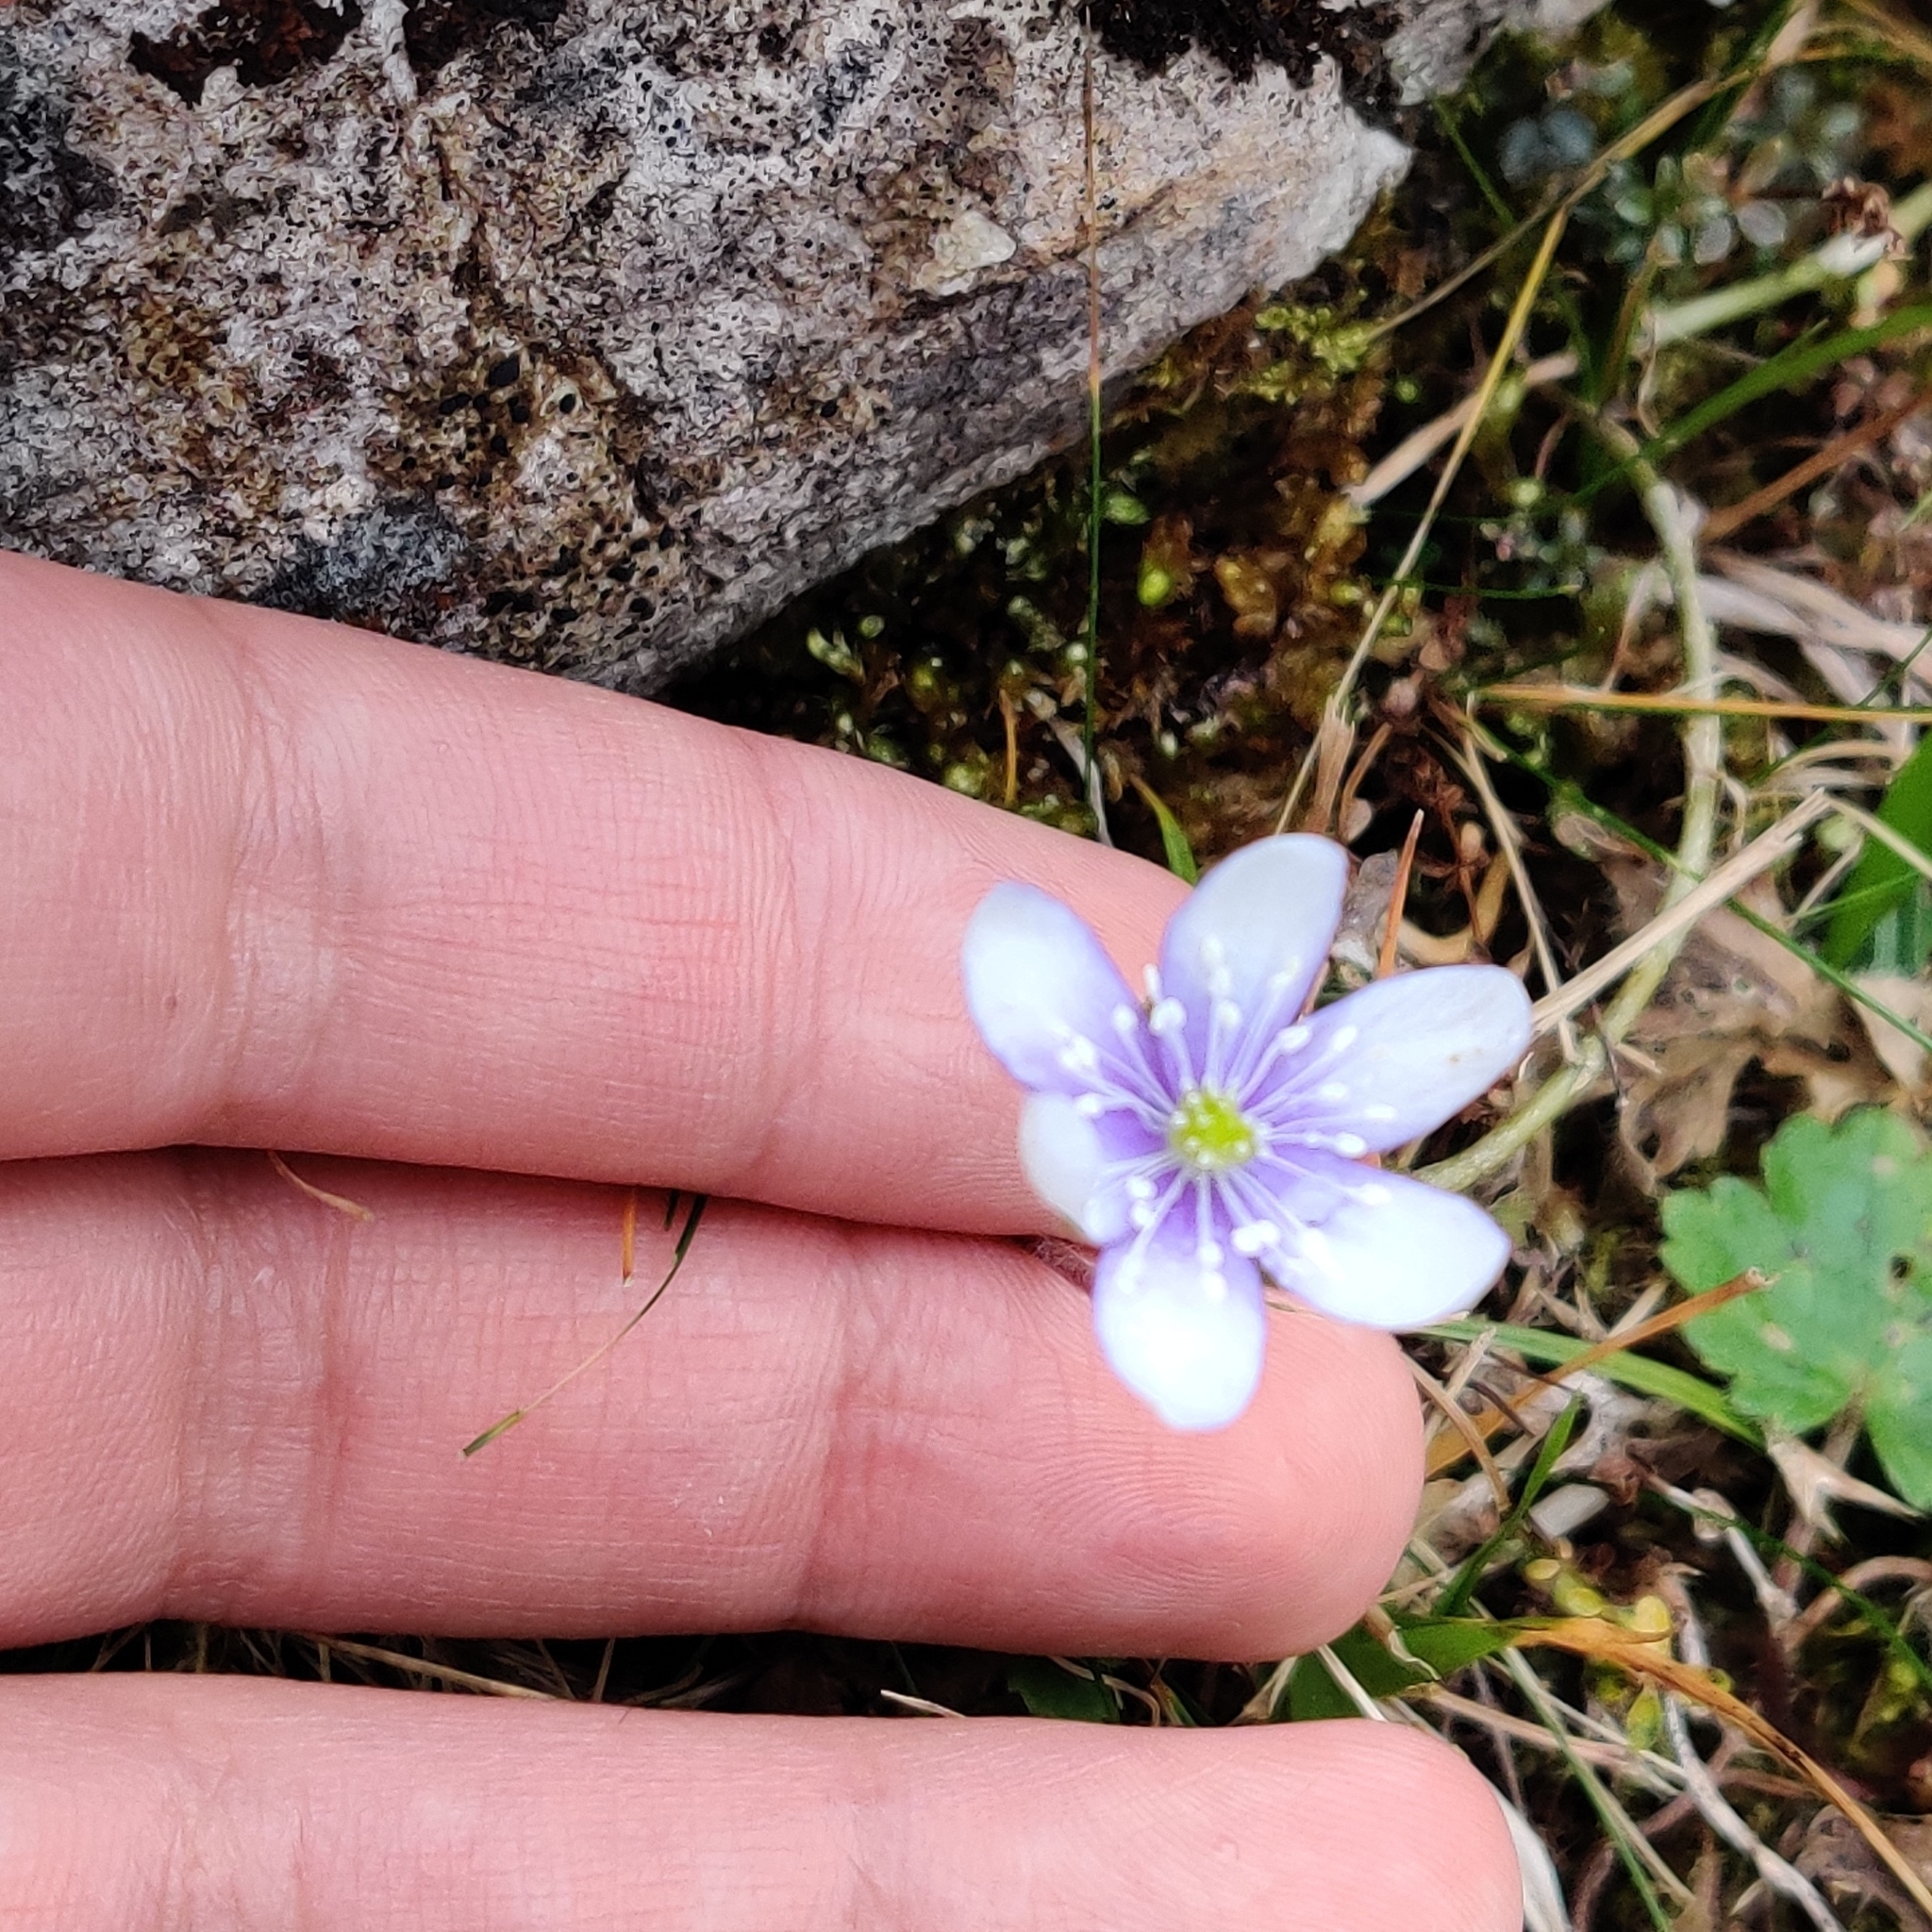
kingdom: Plantae
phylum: Tracheophyta
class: Magnoliopsida
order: Ranunculales
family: Ranunculaceae
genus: Hepatica
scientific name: Hepatica nobilis
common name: Liverleaf
